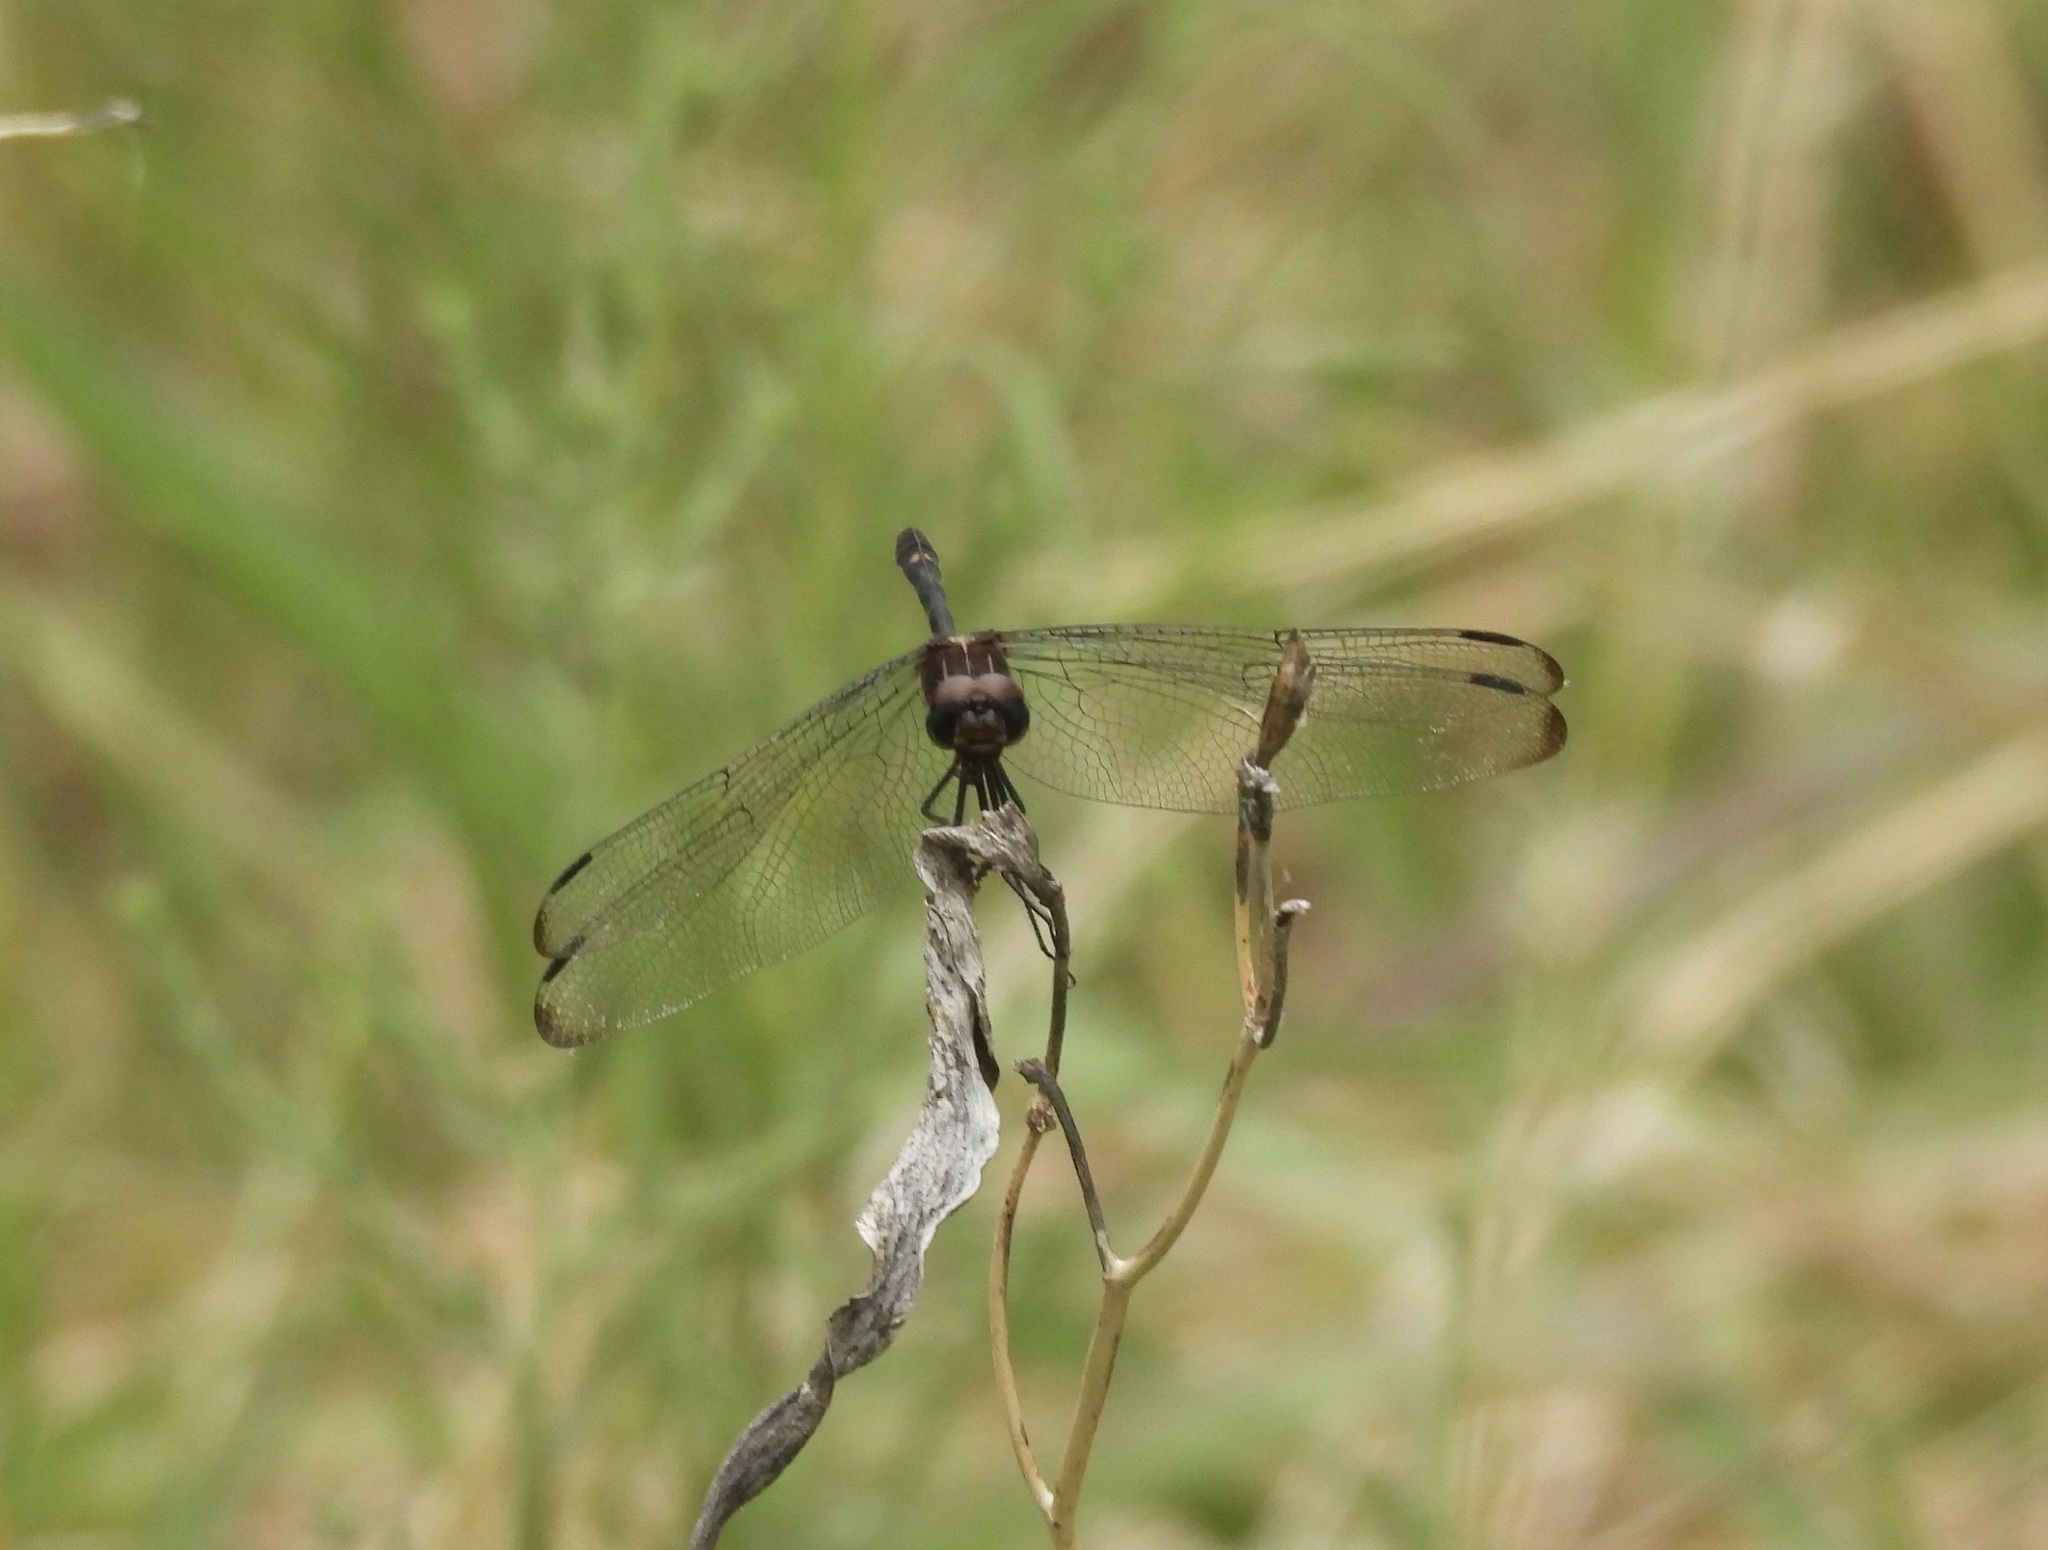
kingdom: Animalia
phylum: Arthropoda
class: Insecta
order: Odonata
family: Libellulidae
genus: Dythemis
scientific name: Dythemis velox
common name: Swift setwing
